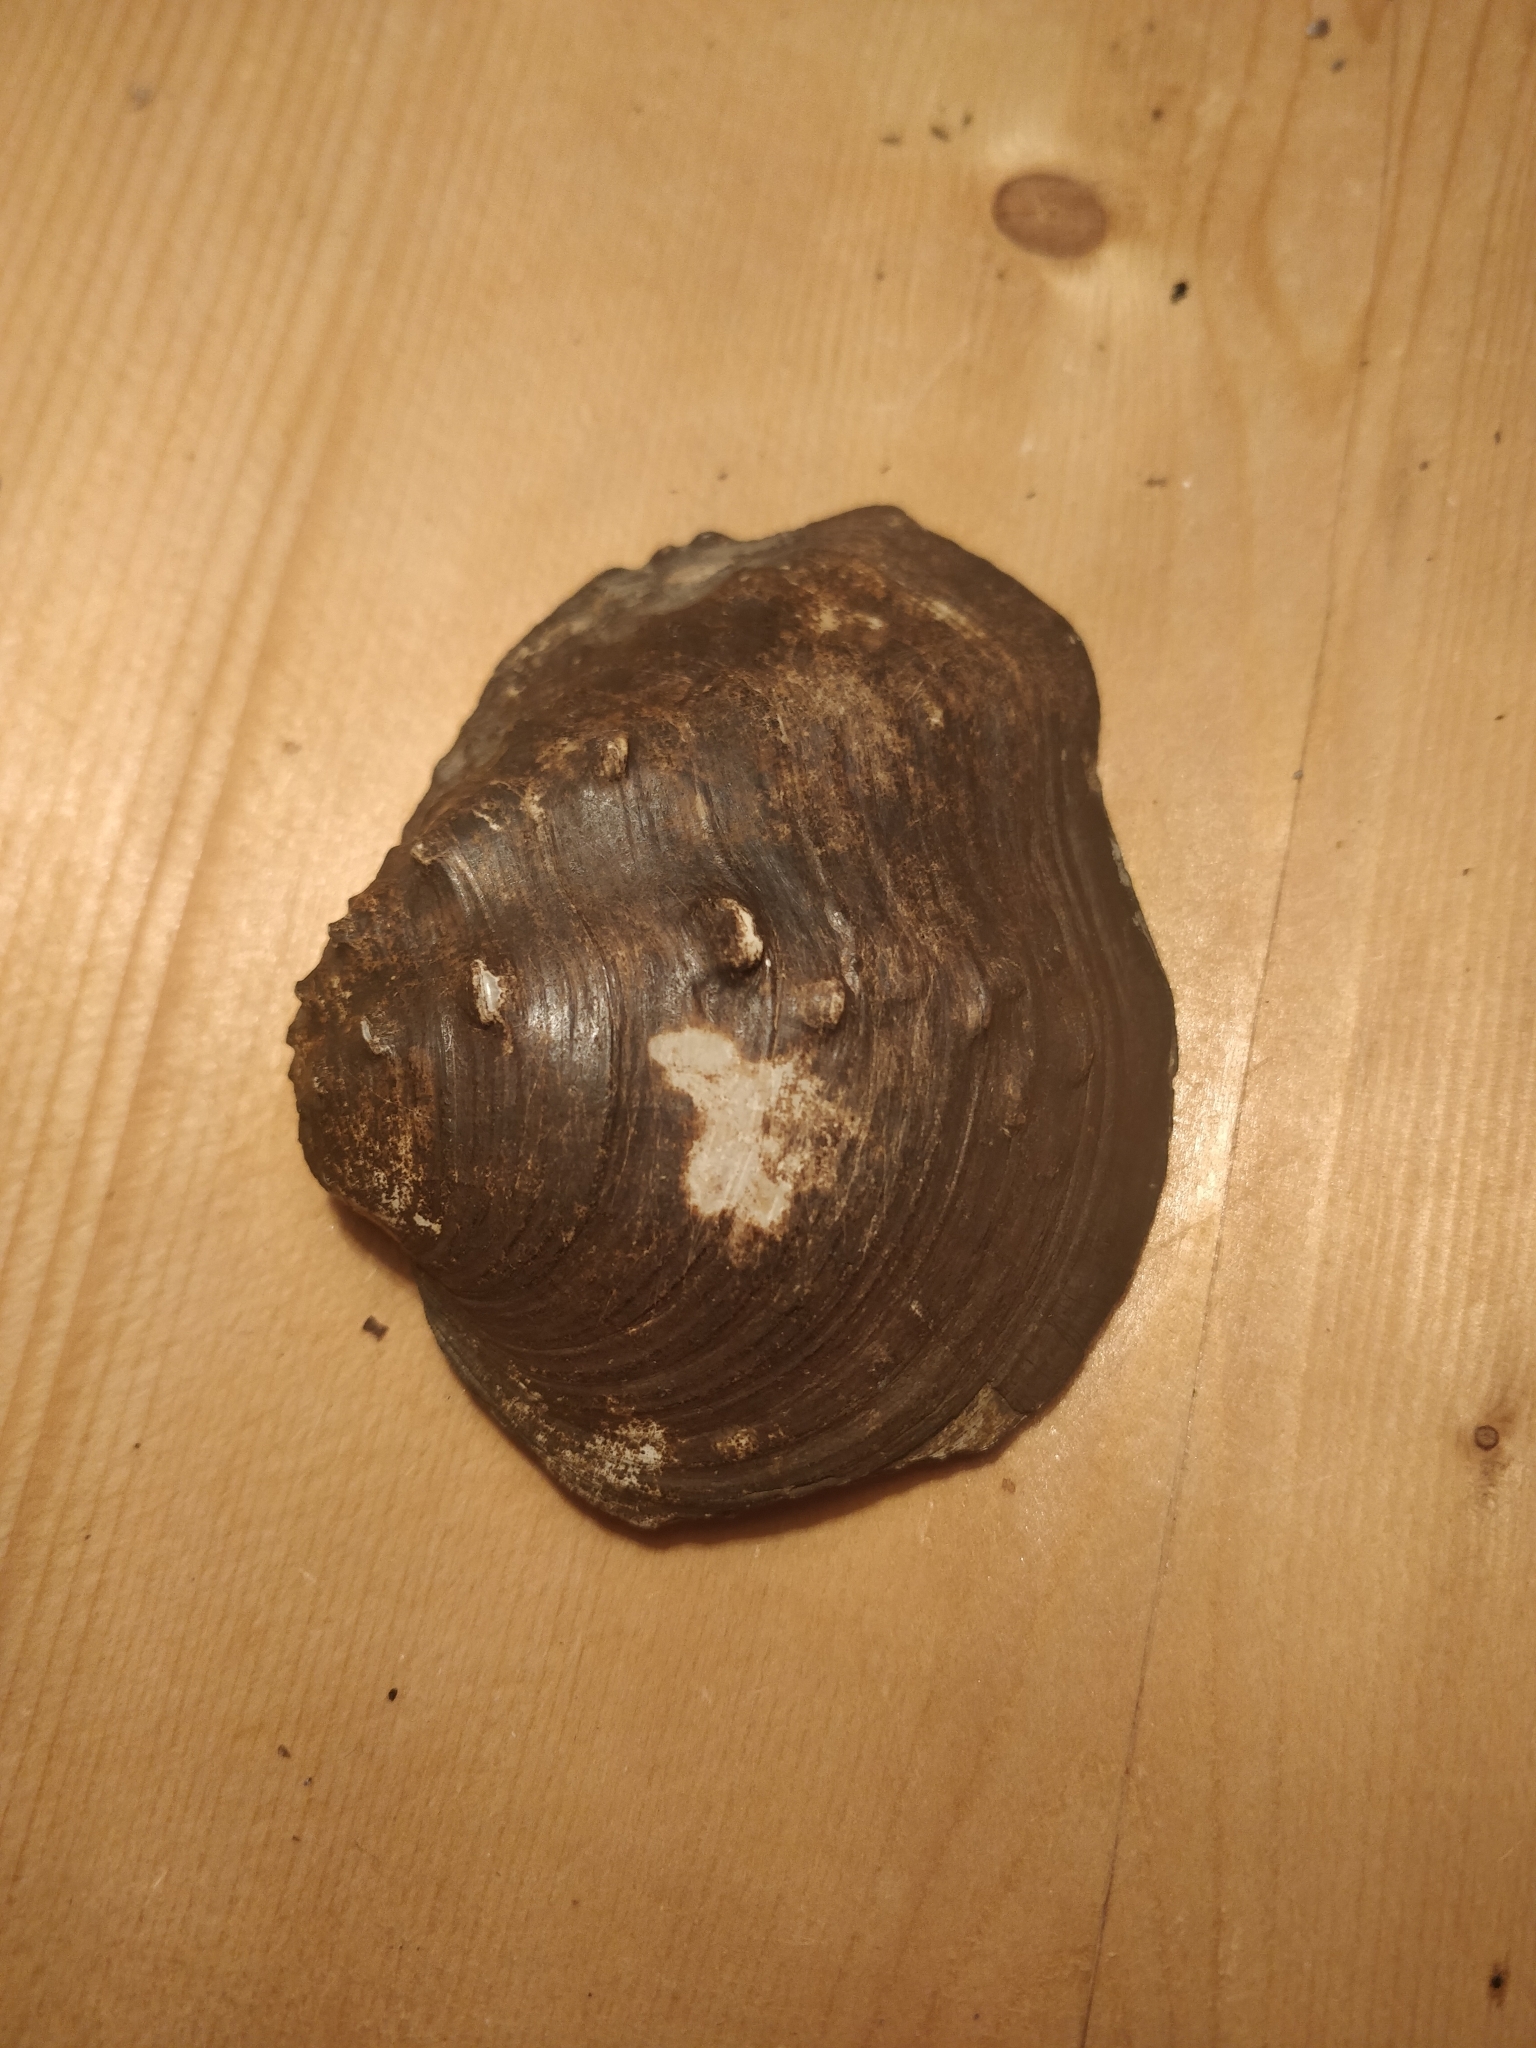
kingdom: Animalia
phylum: Mollusca
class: Bivalvia
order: Unionida
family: Unionidae
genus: Tritogonia
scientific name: Tritogonia nobilis
